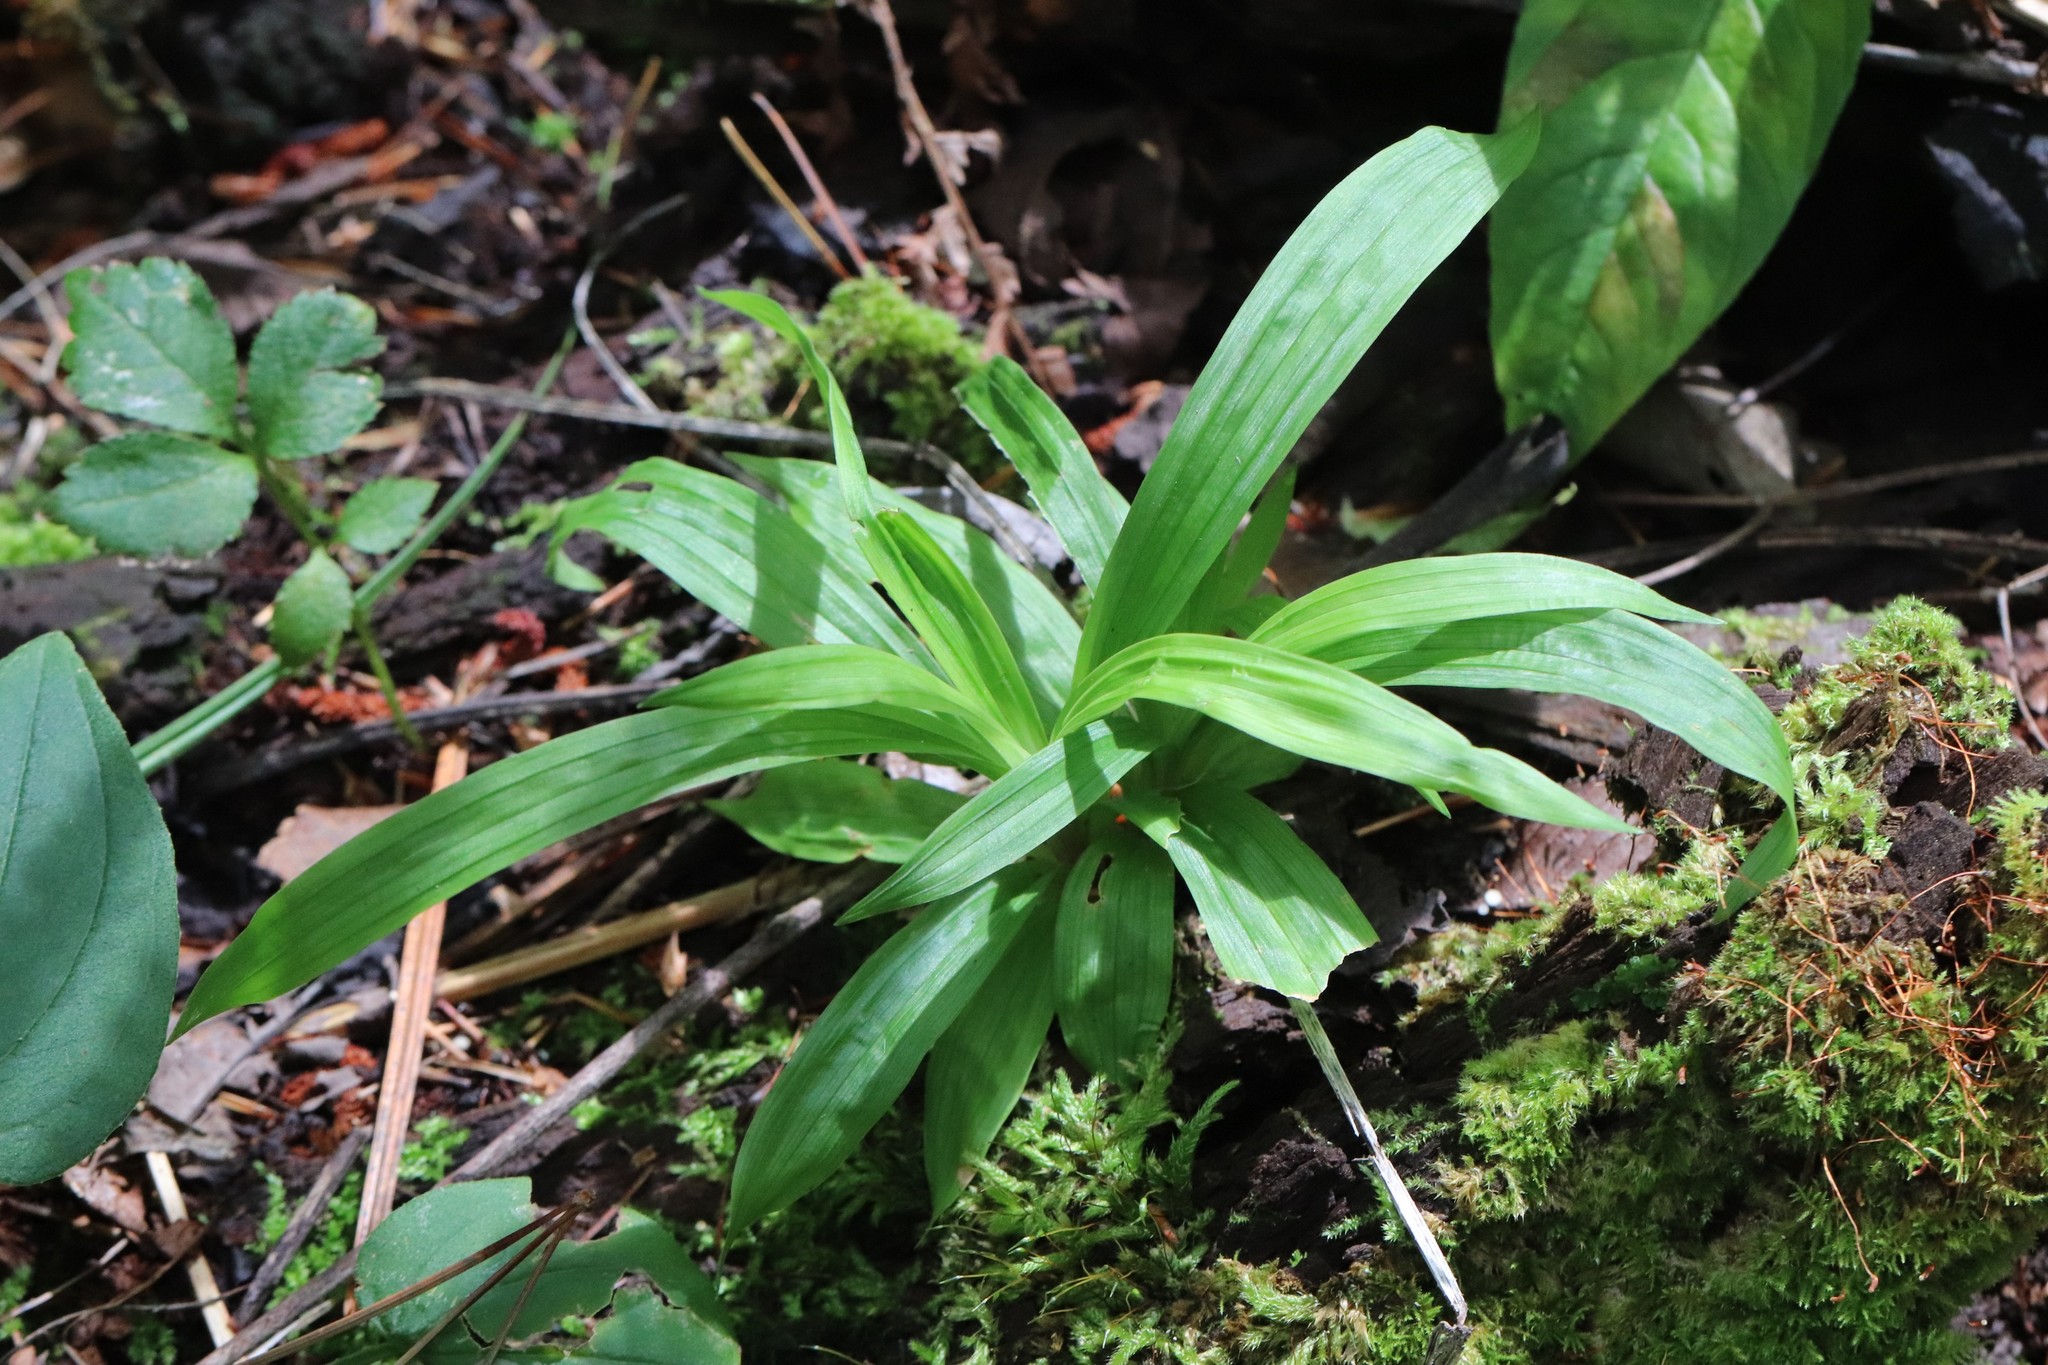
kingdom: Plantae
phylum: Tracheophyta
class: Liliopsida
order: Poales
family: Cyperaceae
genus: Carex
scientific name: Carex siderosticta
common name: Broadleaf sedge
